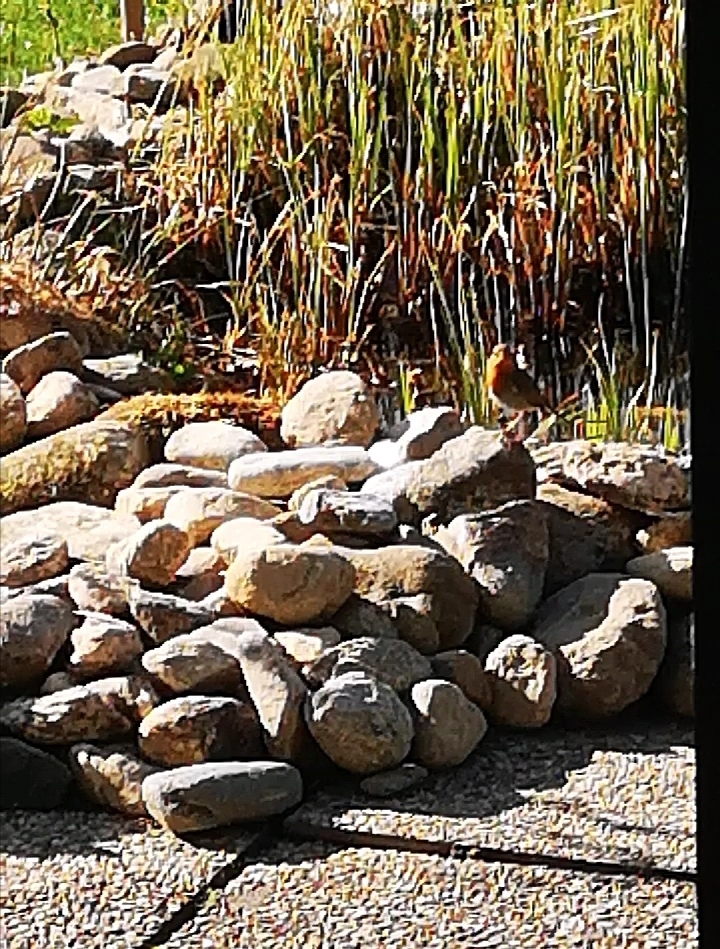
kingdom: Animalia
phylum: Chordata
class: Aves
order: Passeriformes
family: Muscicapidae
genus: Erithacus
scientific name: Erithacus rubecula
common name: European robin
